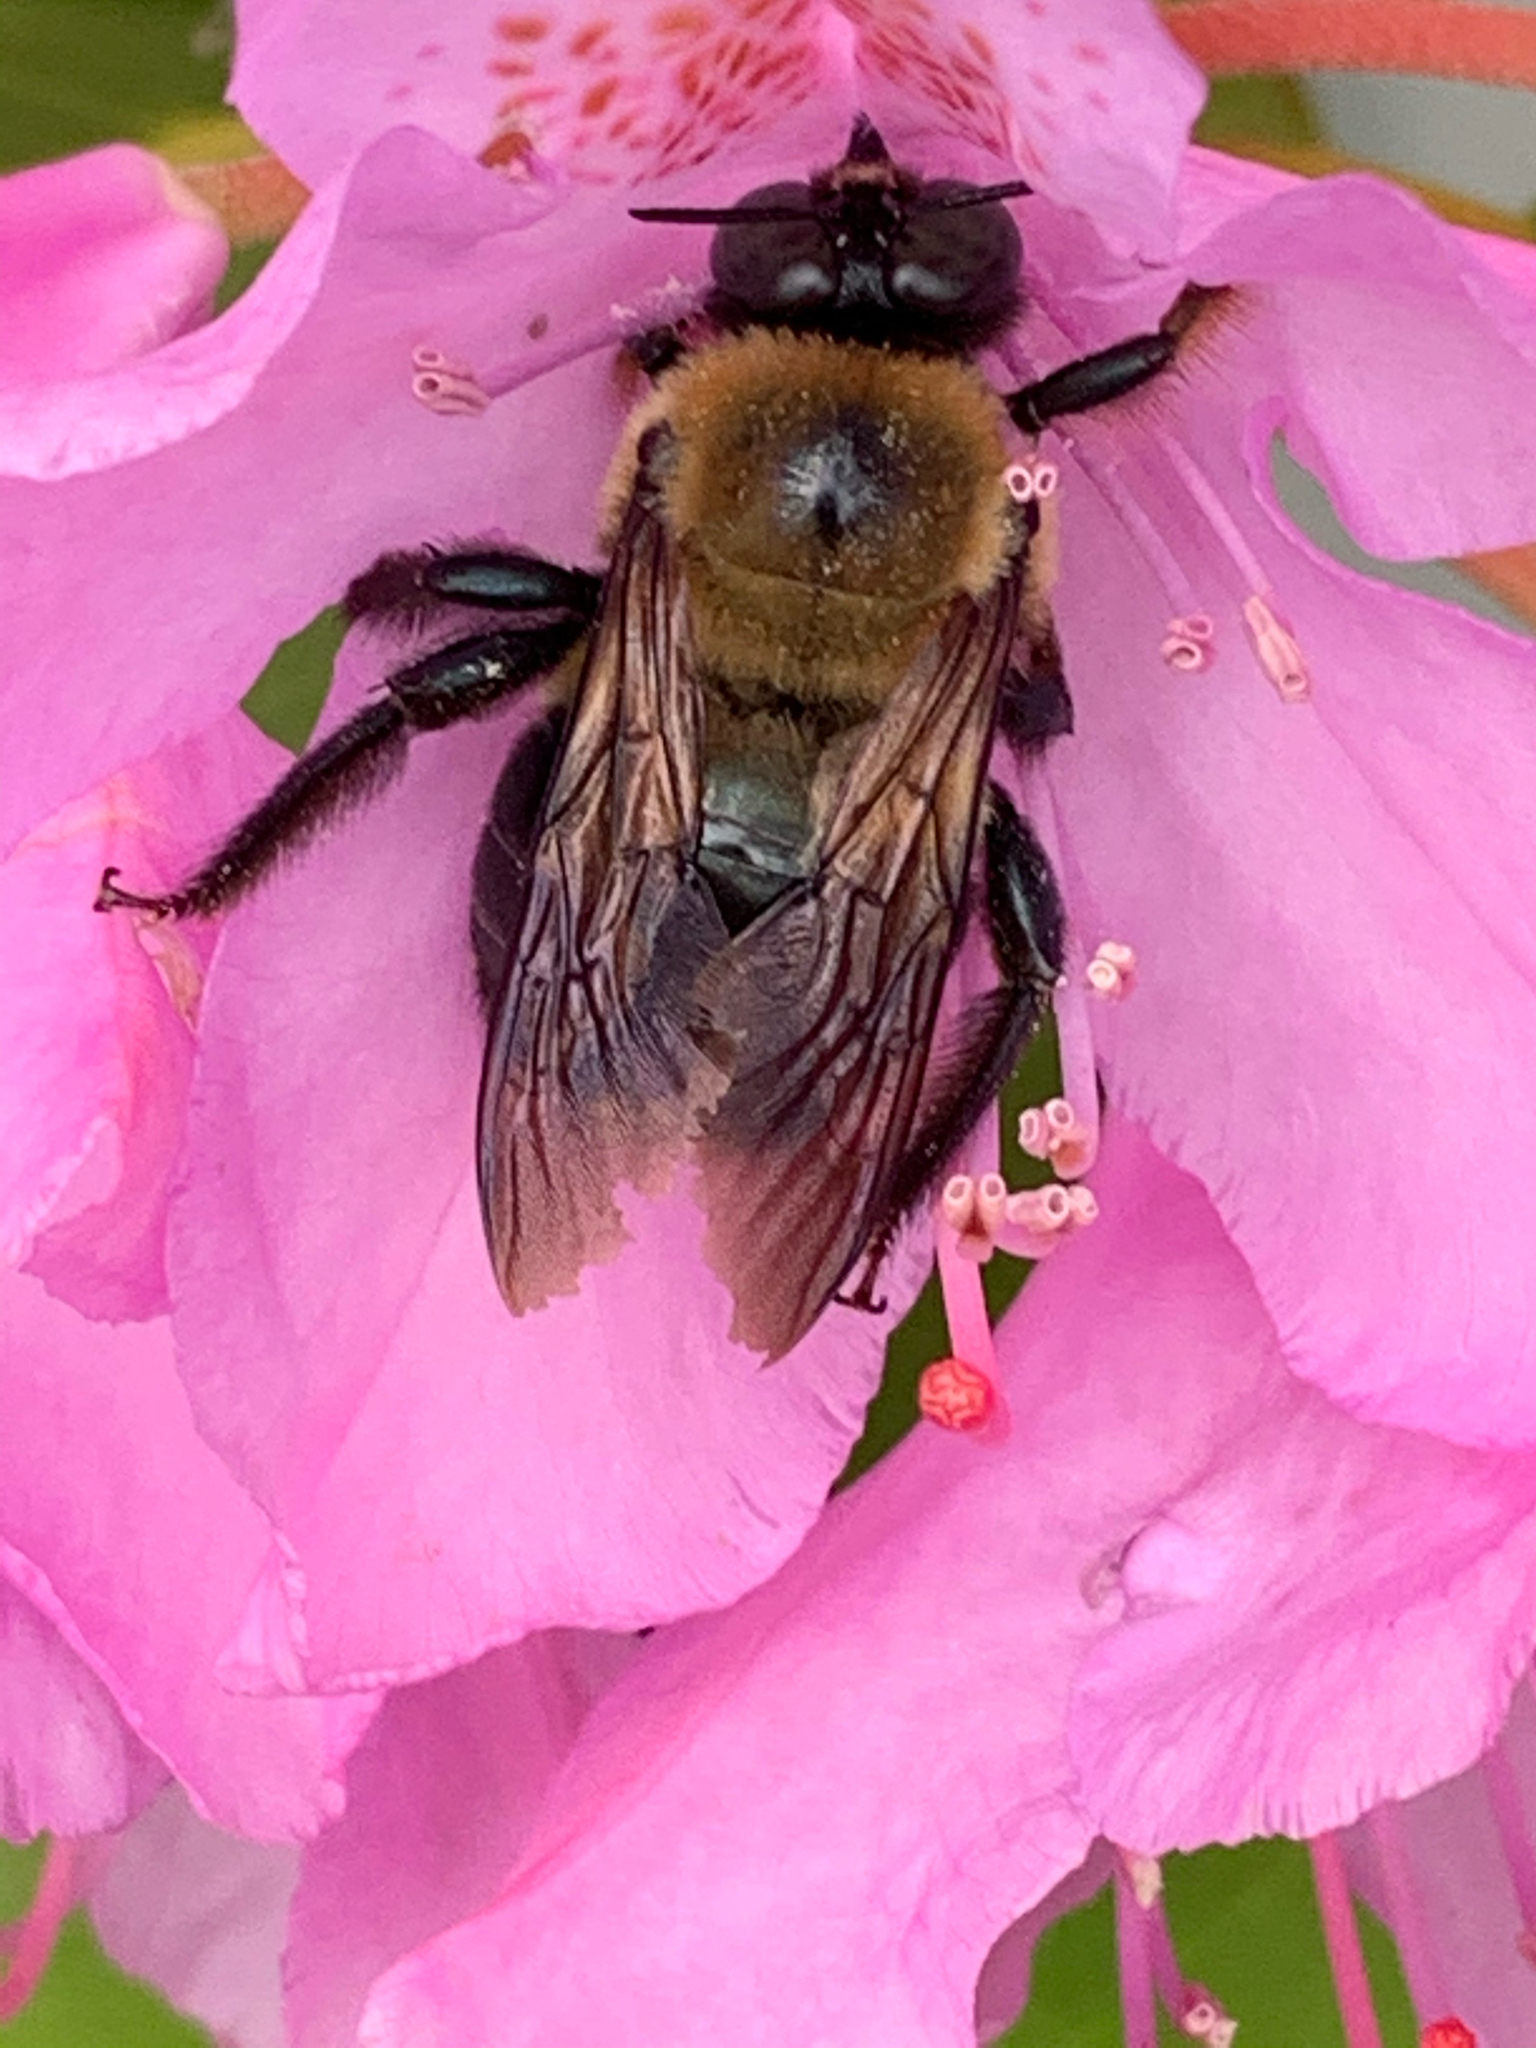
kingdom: Animalia
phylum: Arthropoda
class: Insecta
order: Hymenoptera
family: Apidae
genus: Xylocopa
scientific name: Xylocopa virginica
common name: Carpenter bee
